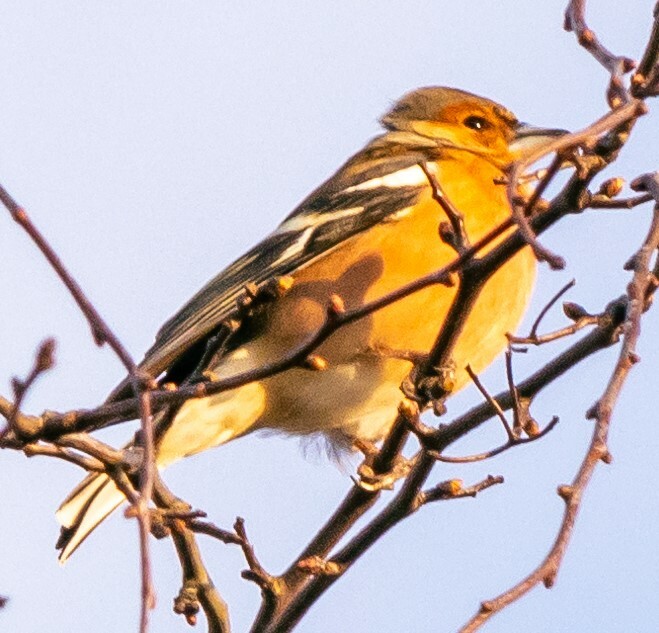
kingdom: Animalia
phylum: Chordata
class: Aves
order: Passeriformes
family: Fringillidae
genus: Fringilla
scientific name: Fringilla coelebs
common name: Common chaffinch
